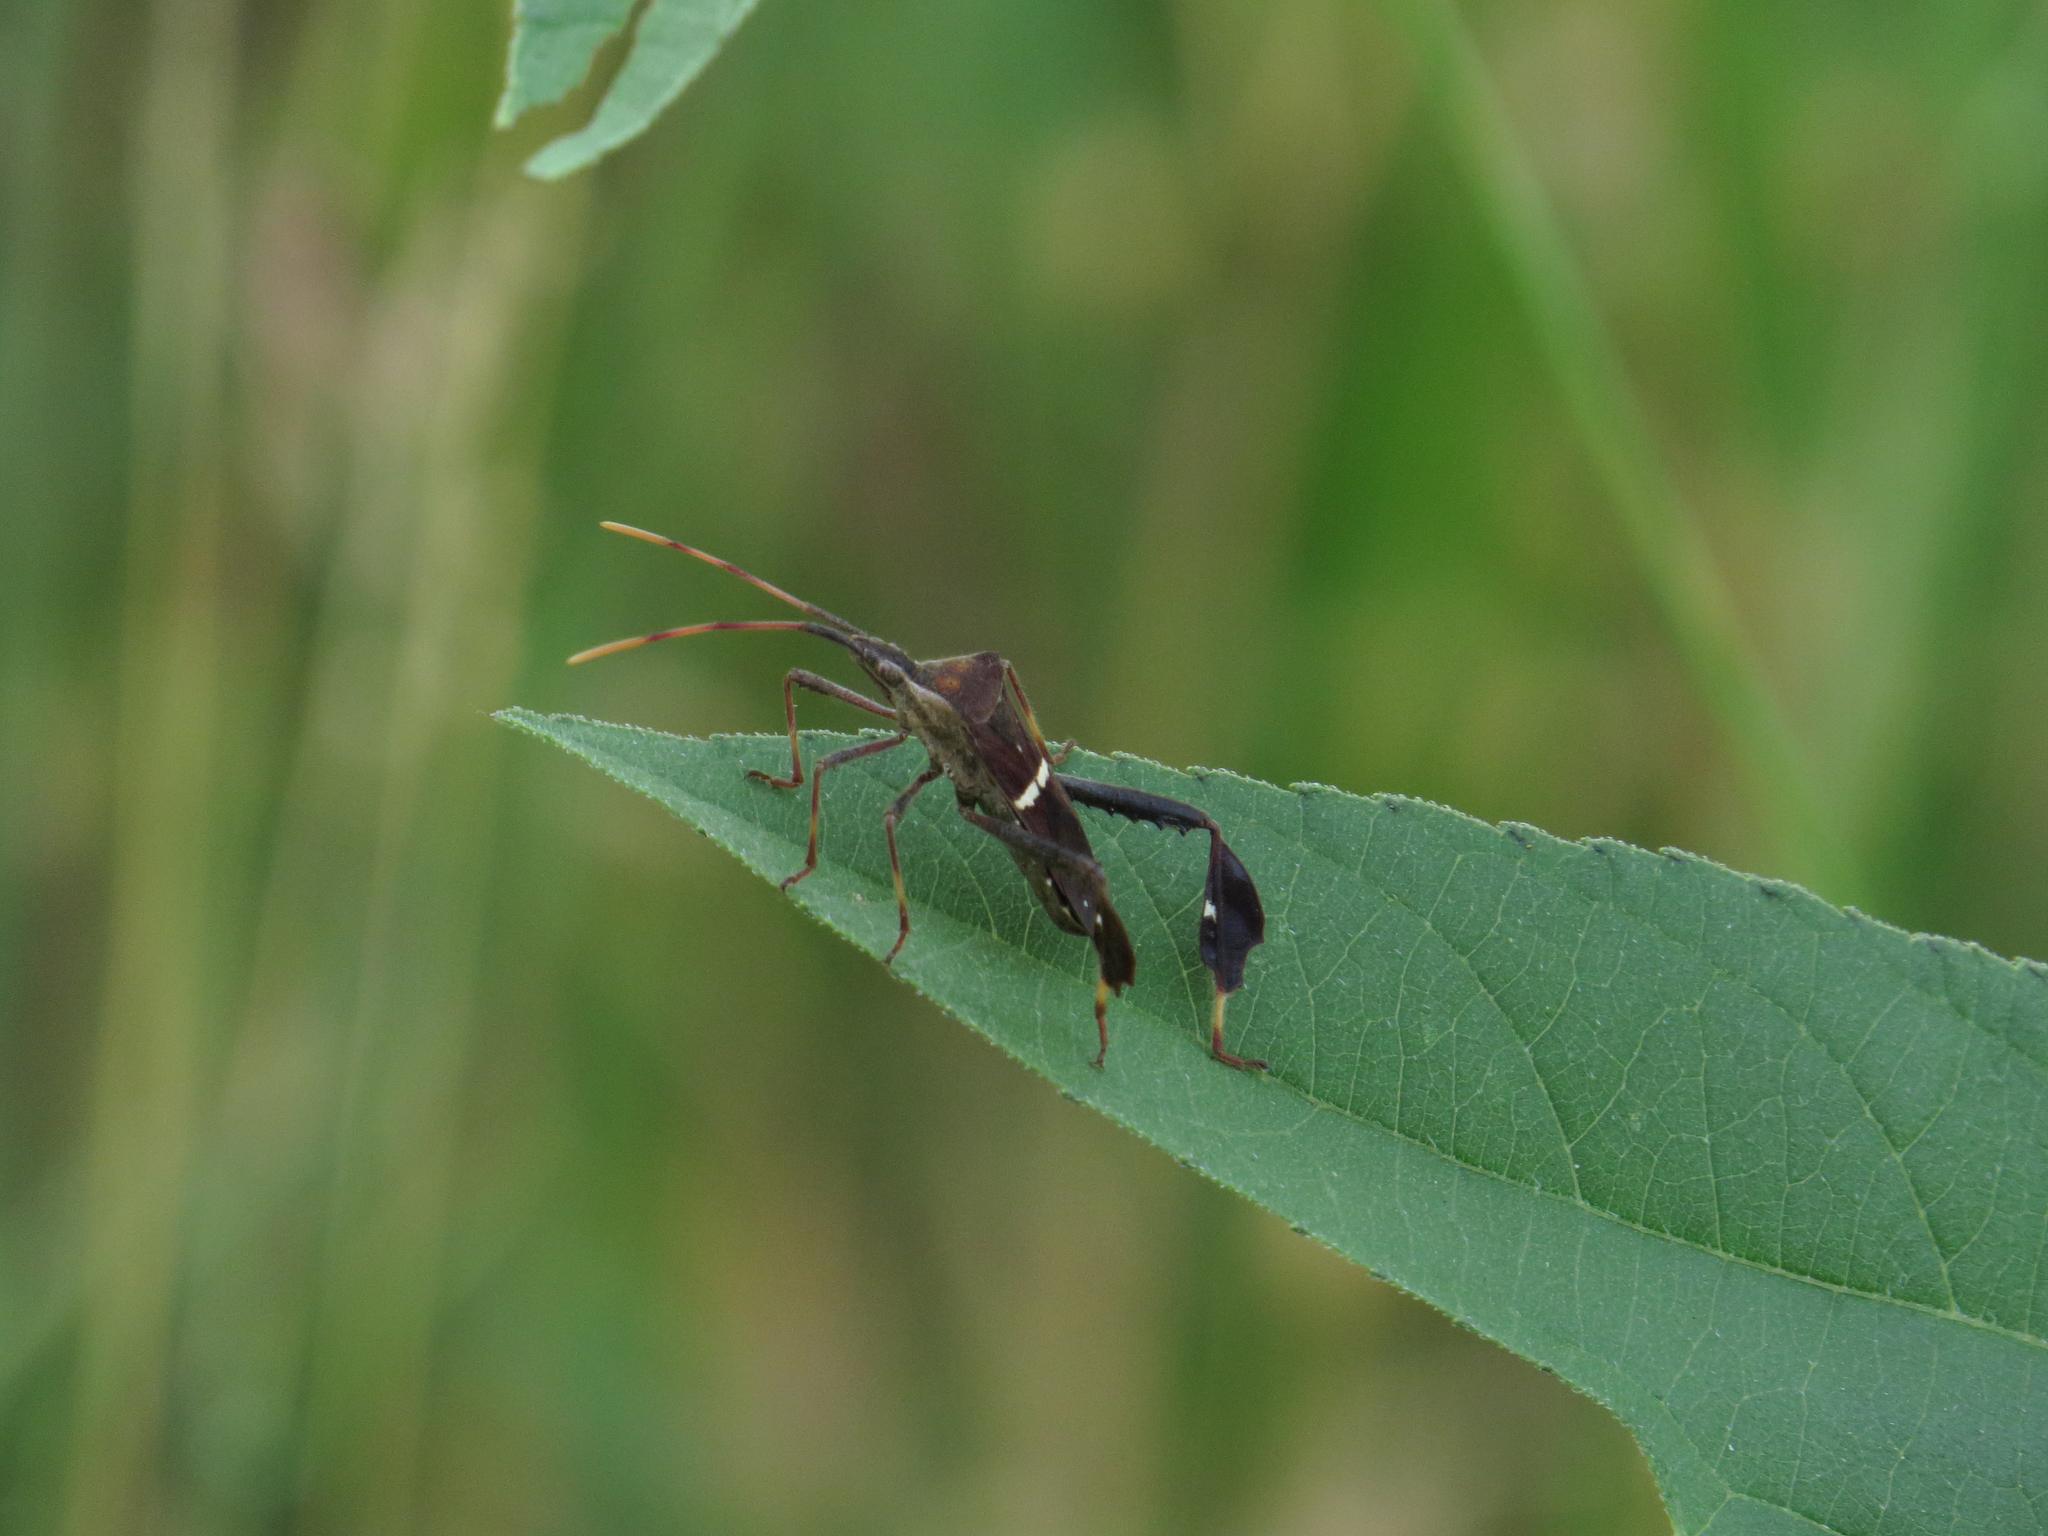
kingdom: Animalia
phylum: Arthropoda
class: Insecta
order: Hemiptera
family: Coreidae
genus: Leptoglossus
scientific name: Leptoglossus phyllopus
